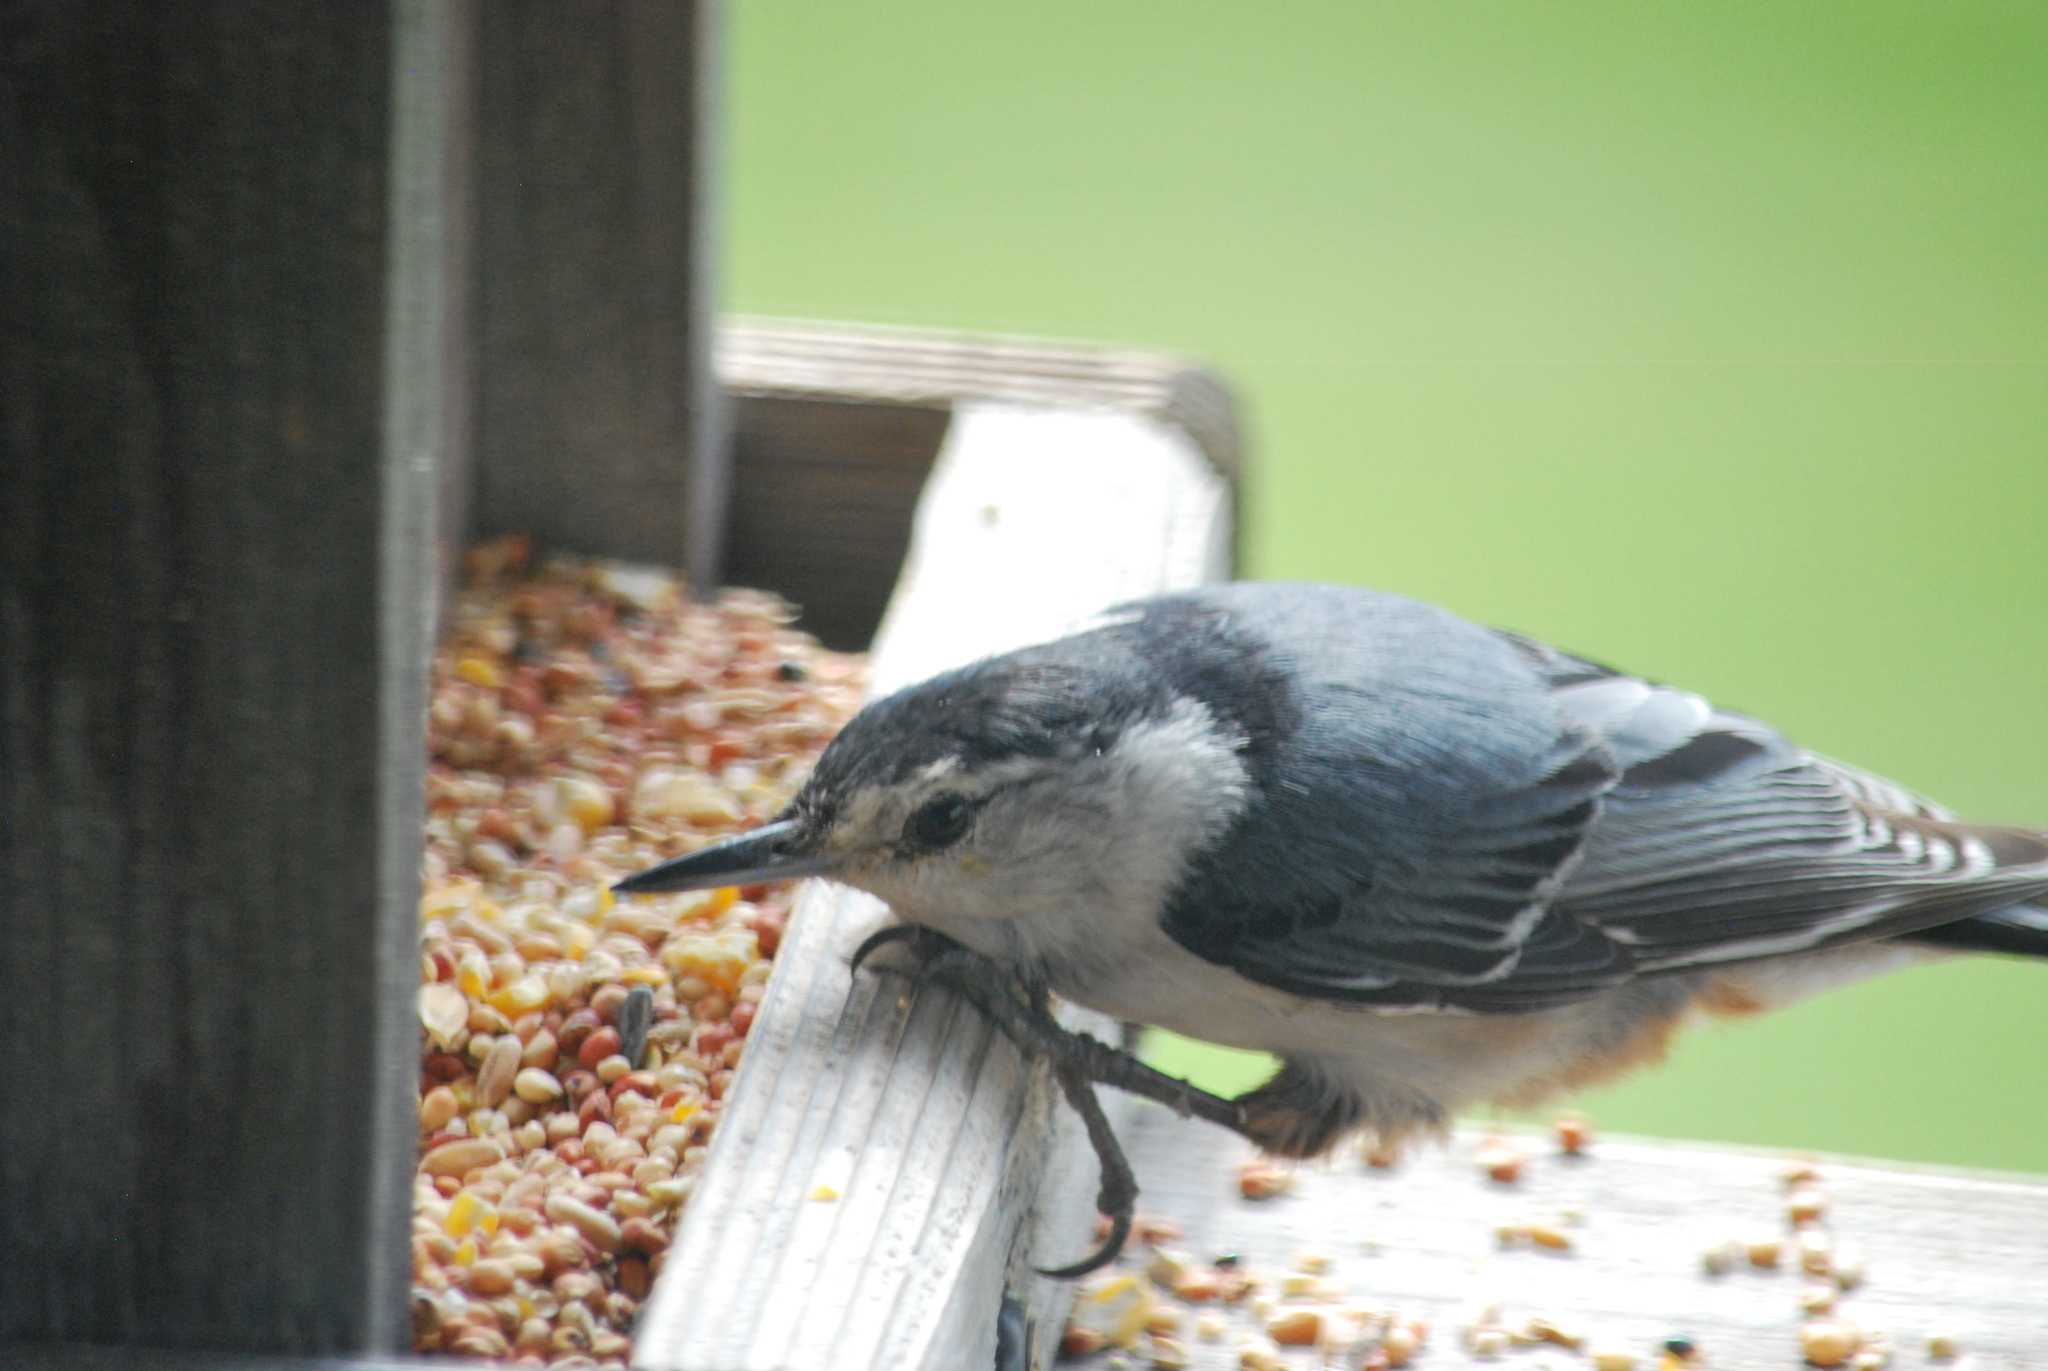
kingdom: Animalia
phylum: Chordata
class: Aves
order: Passeriformes
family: Sittidae
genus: Sitta
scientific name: Sitta carolinensis
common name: White-breasted nuthatch
